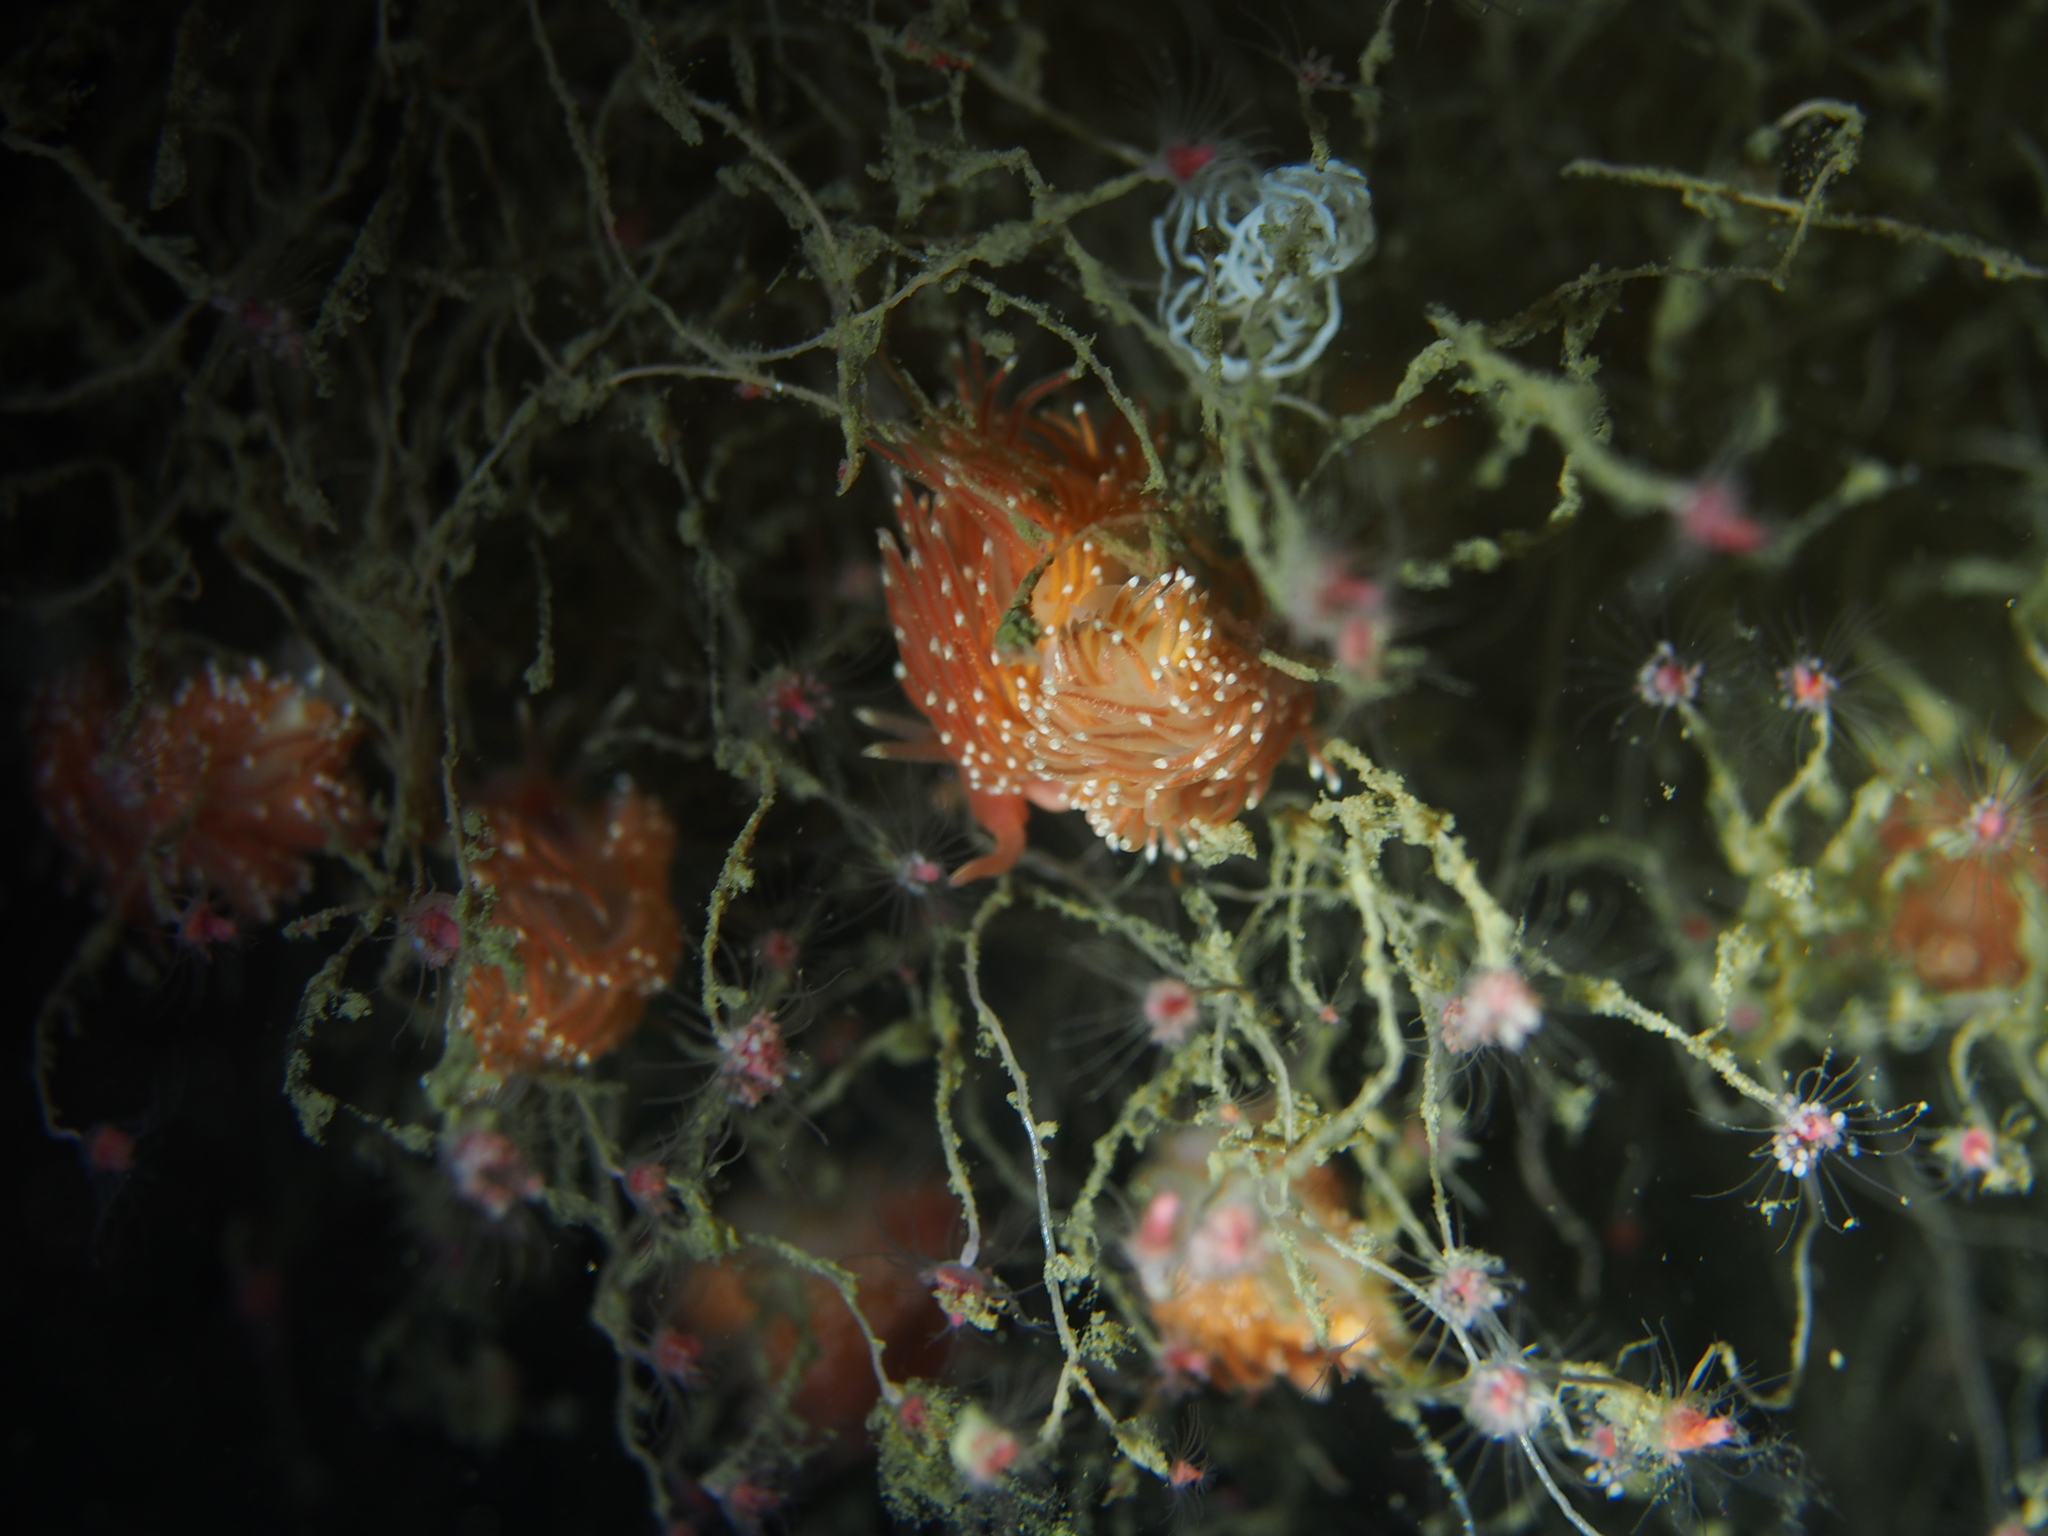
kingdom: Animalia
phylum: Mollusca
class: Gastropoda
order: Nudibranchia
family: Facelinidae
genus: Facelina
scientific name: Facelina bostoniensis
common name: Boston facelina
